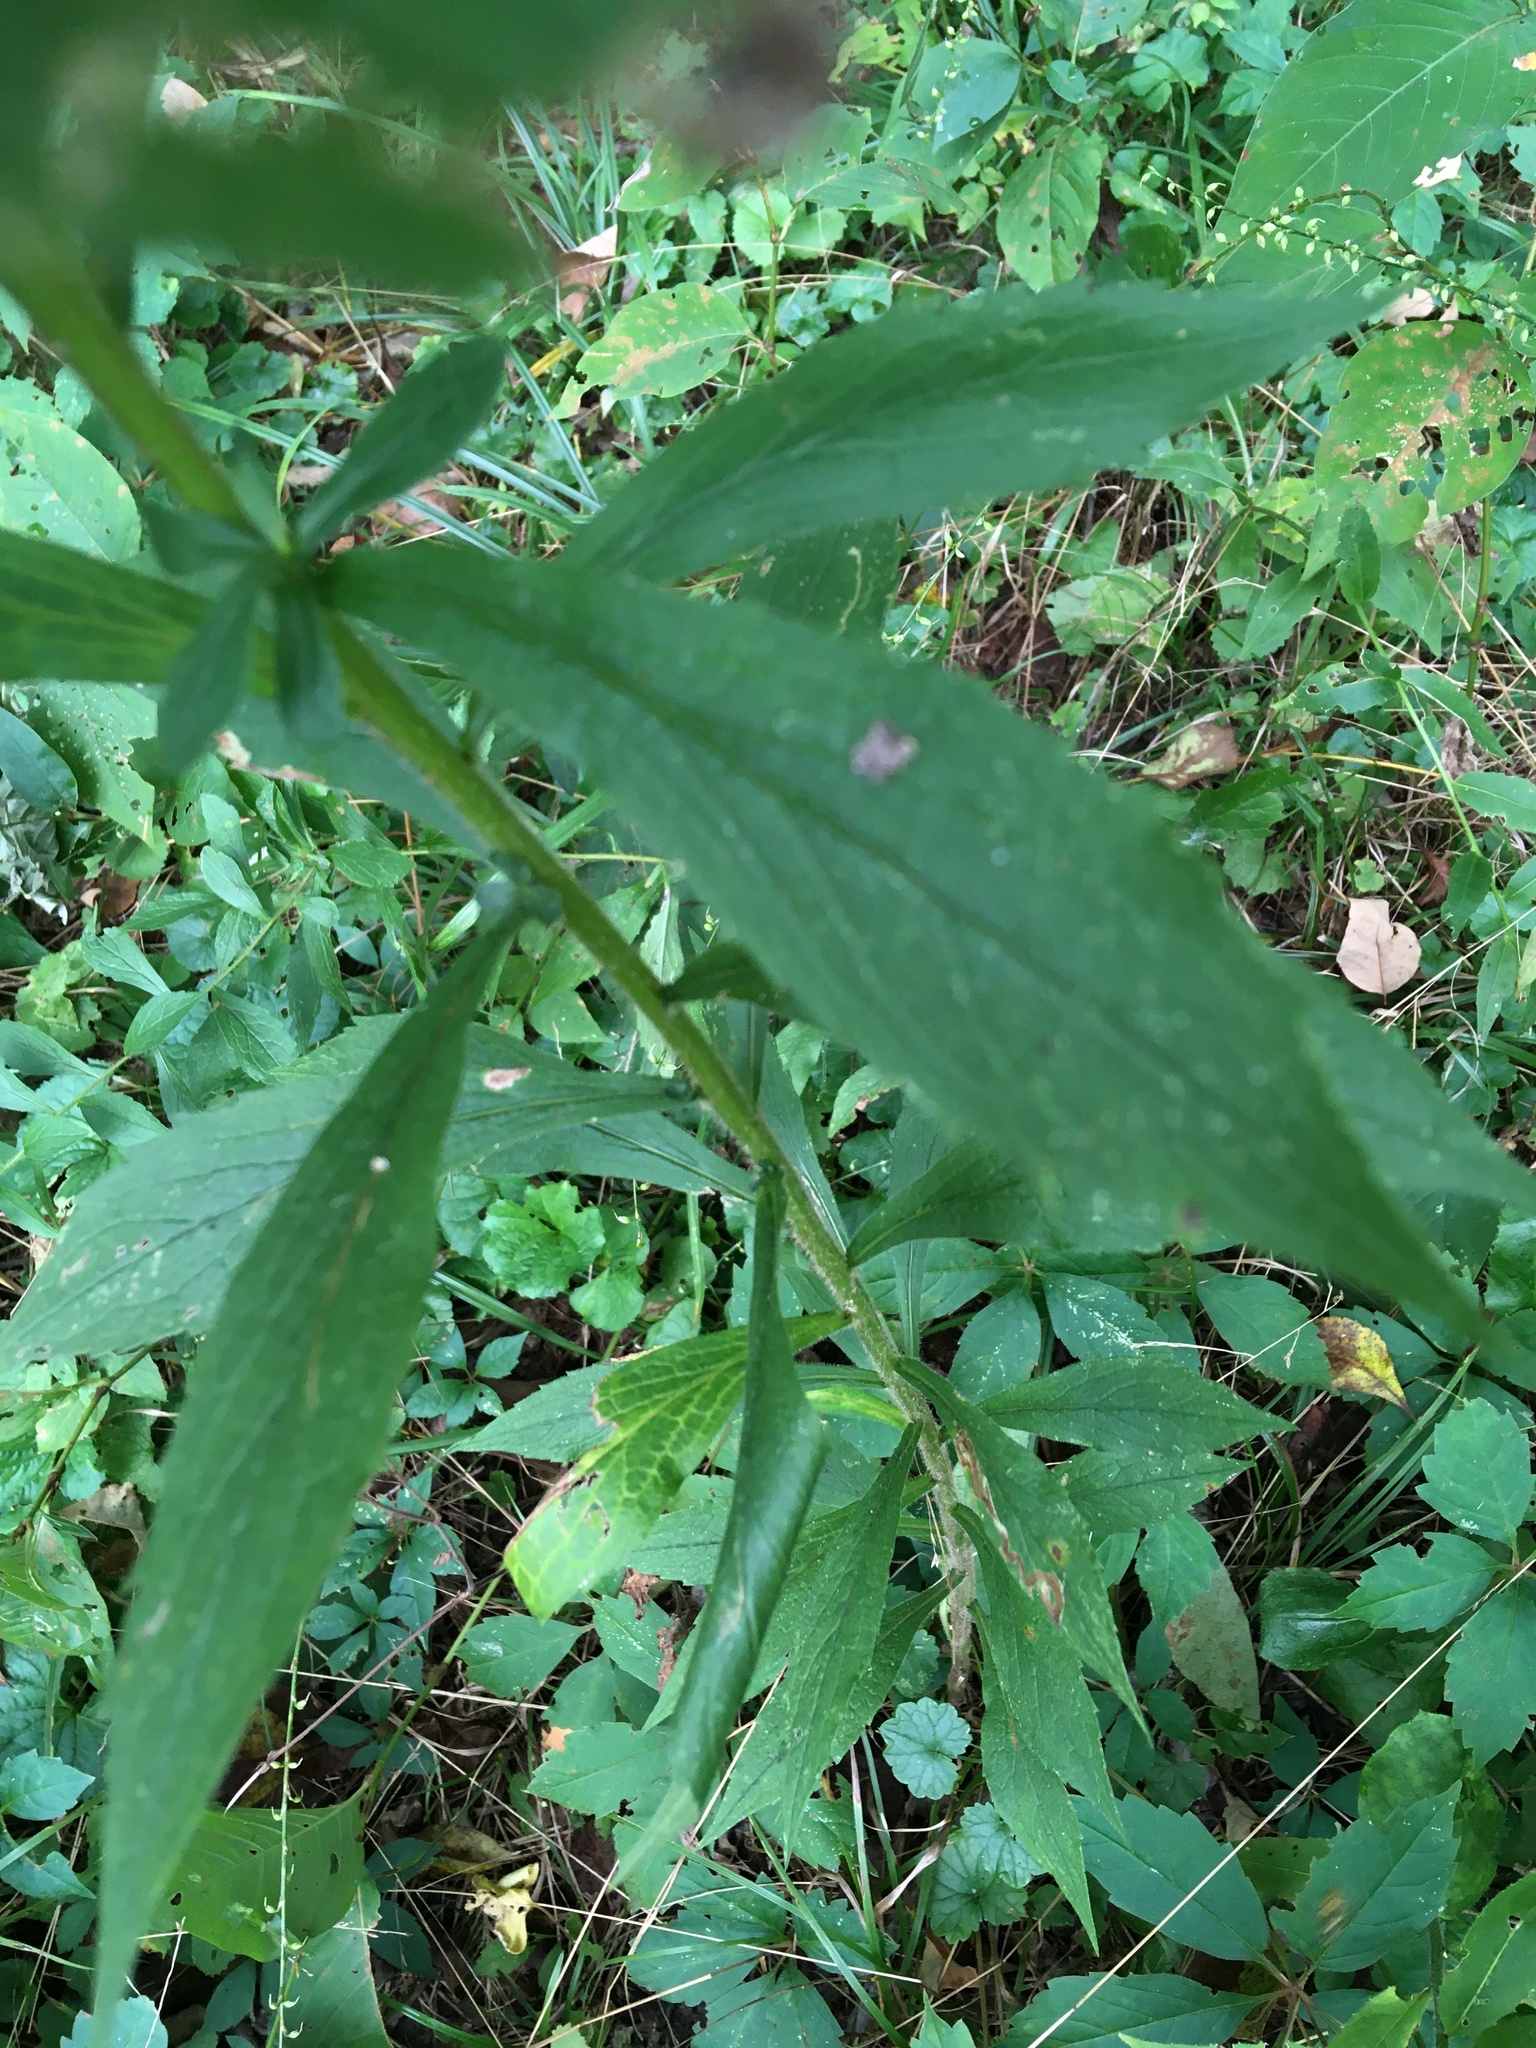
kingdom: Plantae
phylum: Tracheophyta
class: Magnoliopsida
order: Asterales
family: Asteraceae
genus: Solidago
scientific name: Solidago rugosa
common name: Rough-stemmed goldenrod
